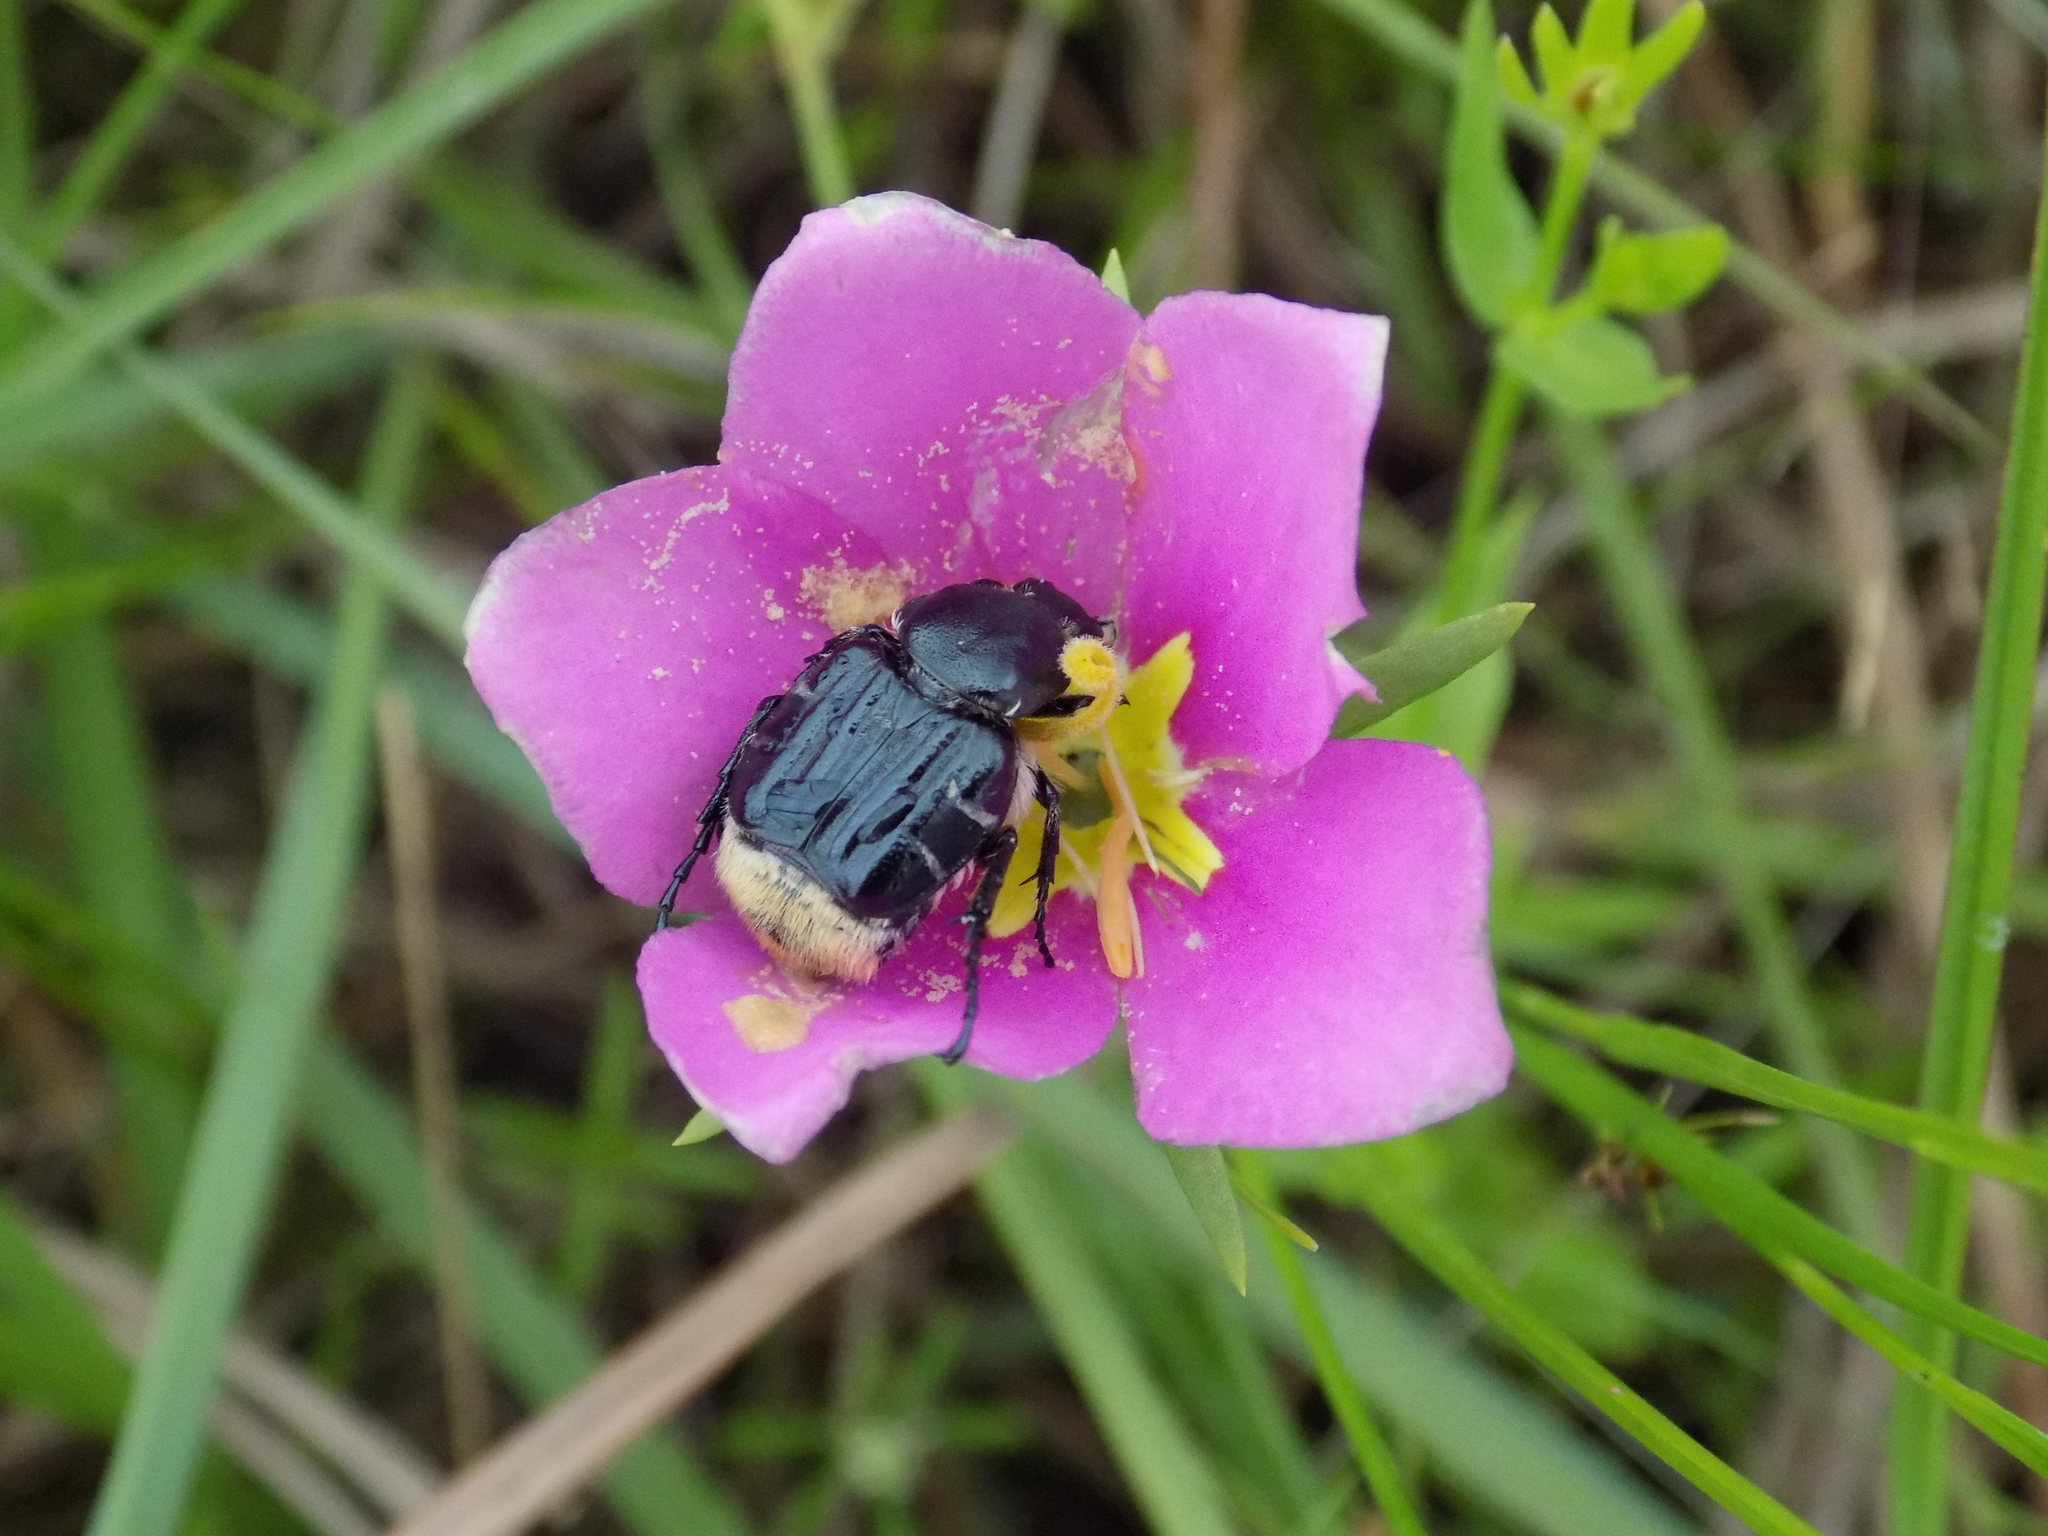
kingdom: Plantae
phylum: Tracheophyta
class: Magnoliopsida
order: Gentianales
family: Gentianaceae
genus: Sabatia
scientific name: Sabatia campestris
